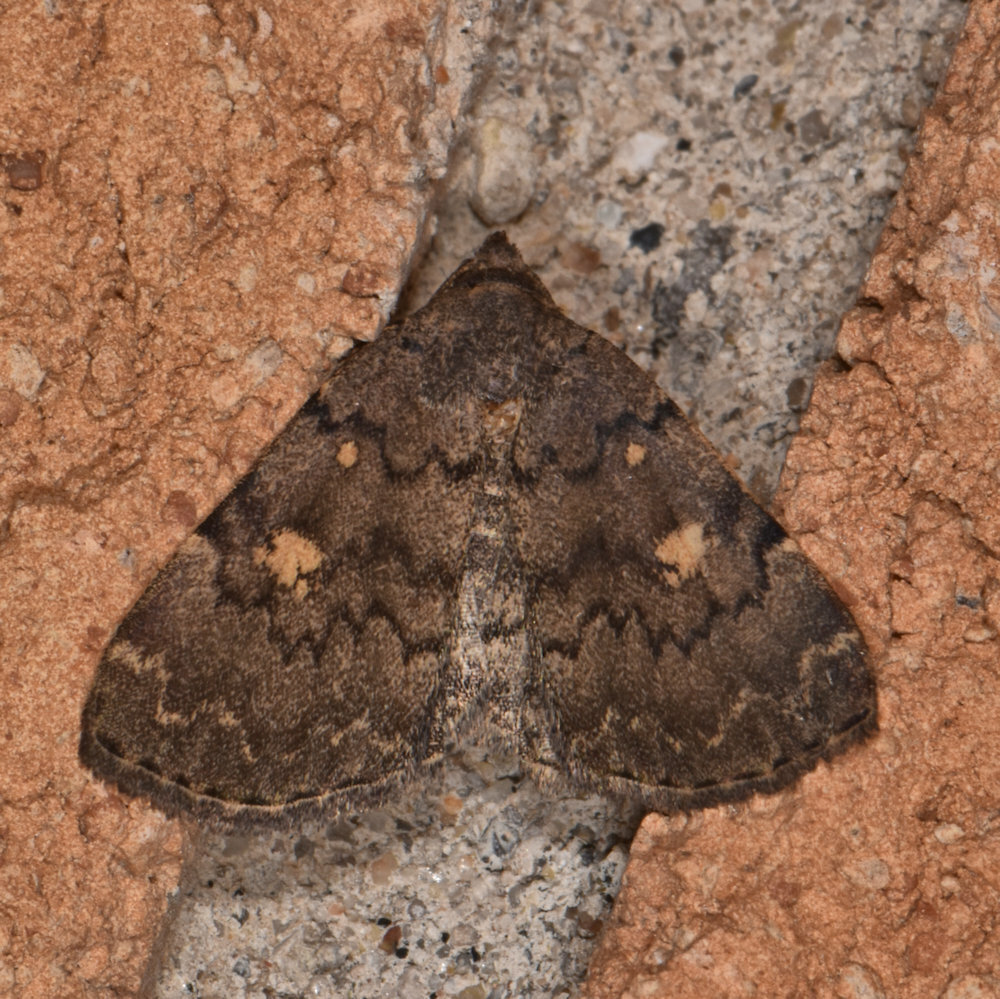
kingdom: Animalia
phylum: Arthropoda
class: Insecta
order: Lepidoptera
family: Erebidae
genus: Idia
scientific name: Idia aemula
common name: Common idia moth
